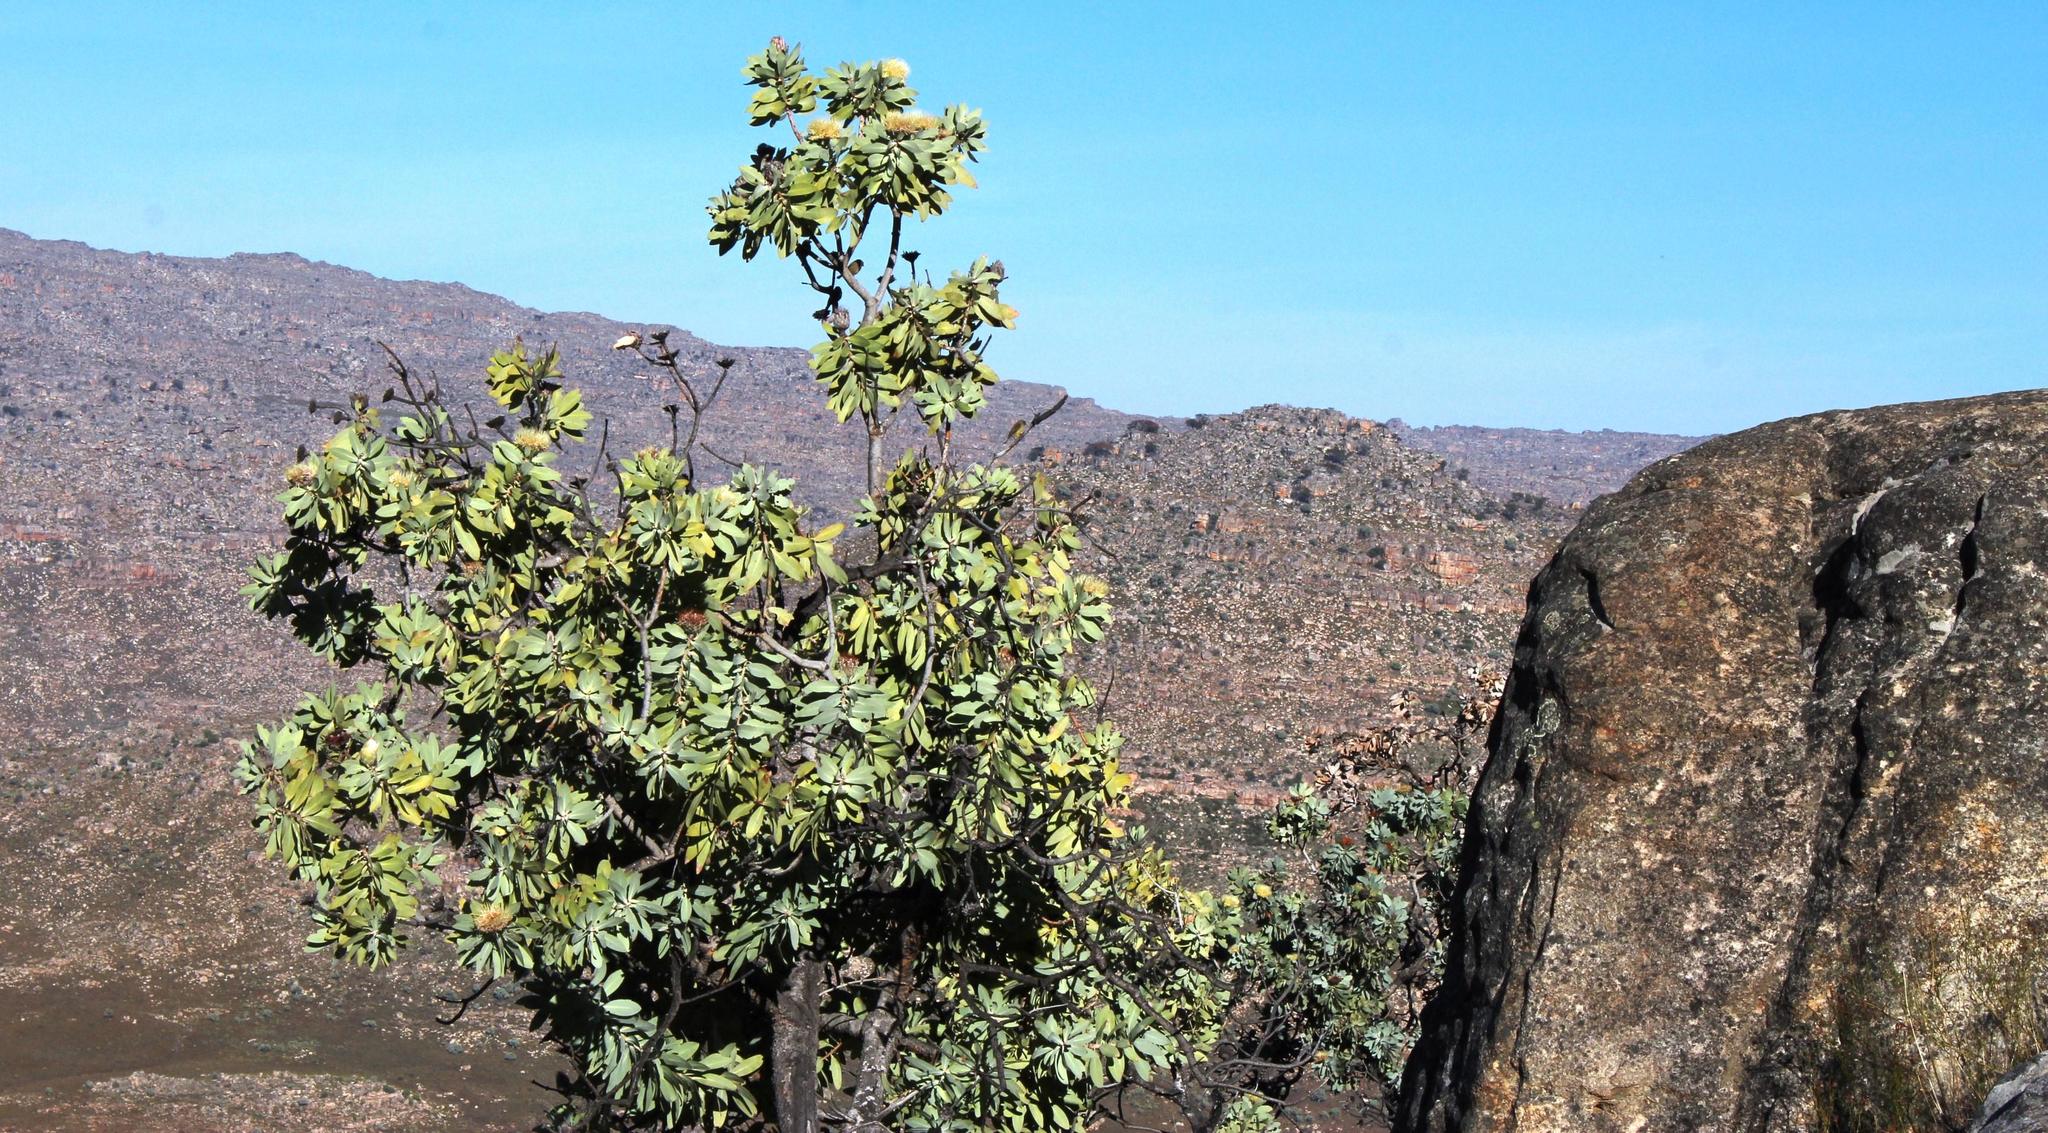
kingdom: Plantae
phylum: Tracheophyta
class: Magnoliopsida
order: Proteales
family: Proteaceae
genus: Protea
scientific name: Protea nitida
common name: Tree protea
